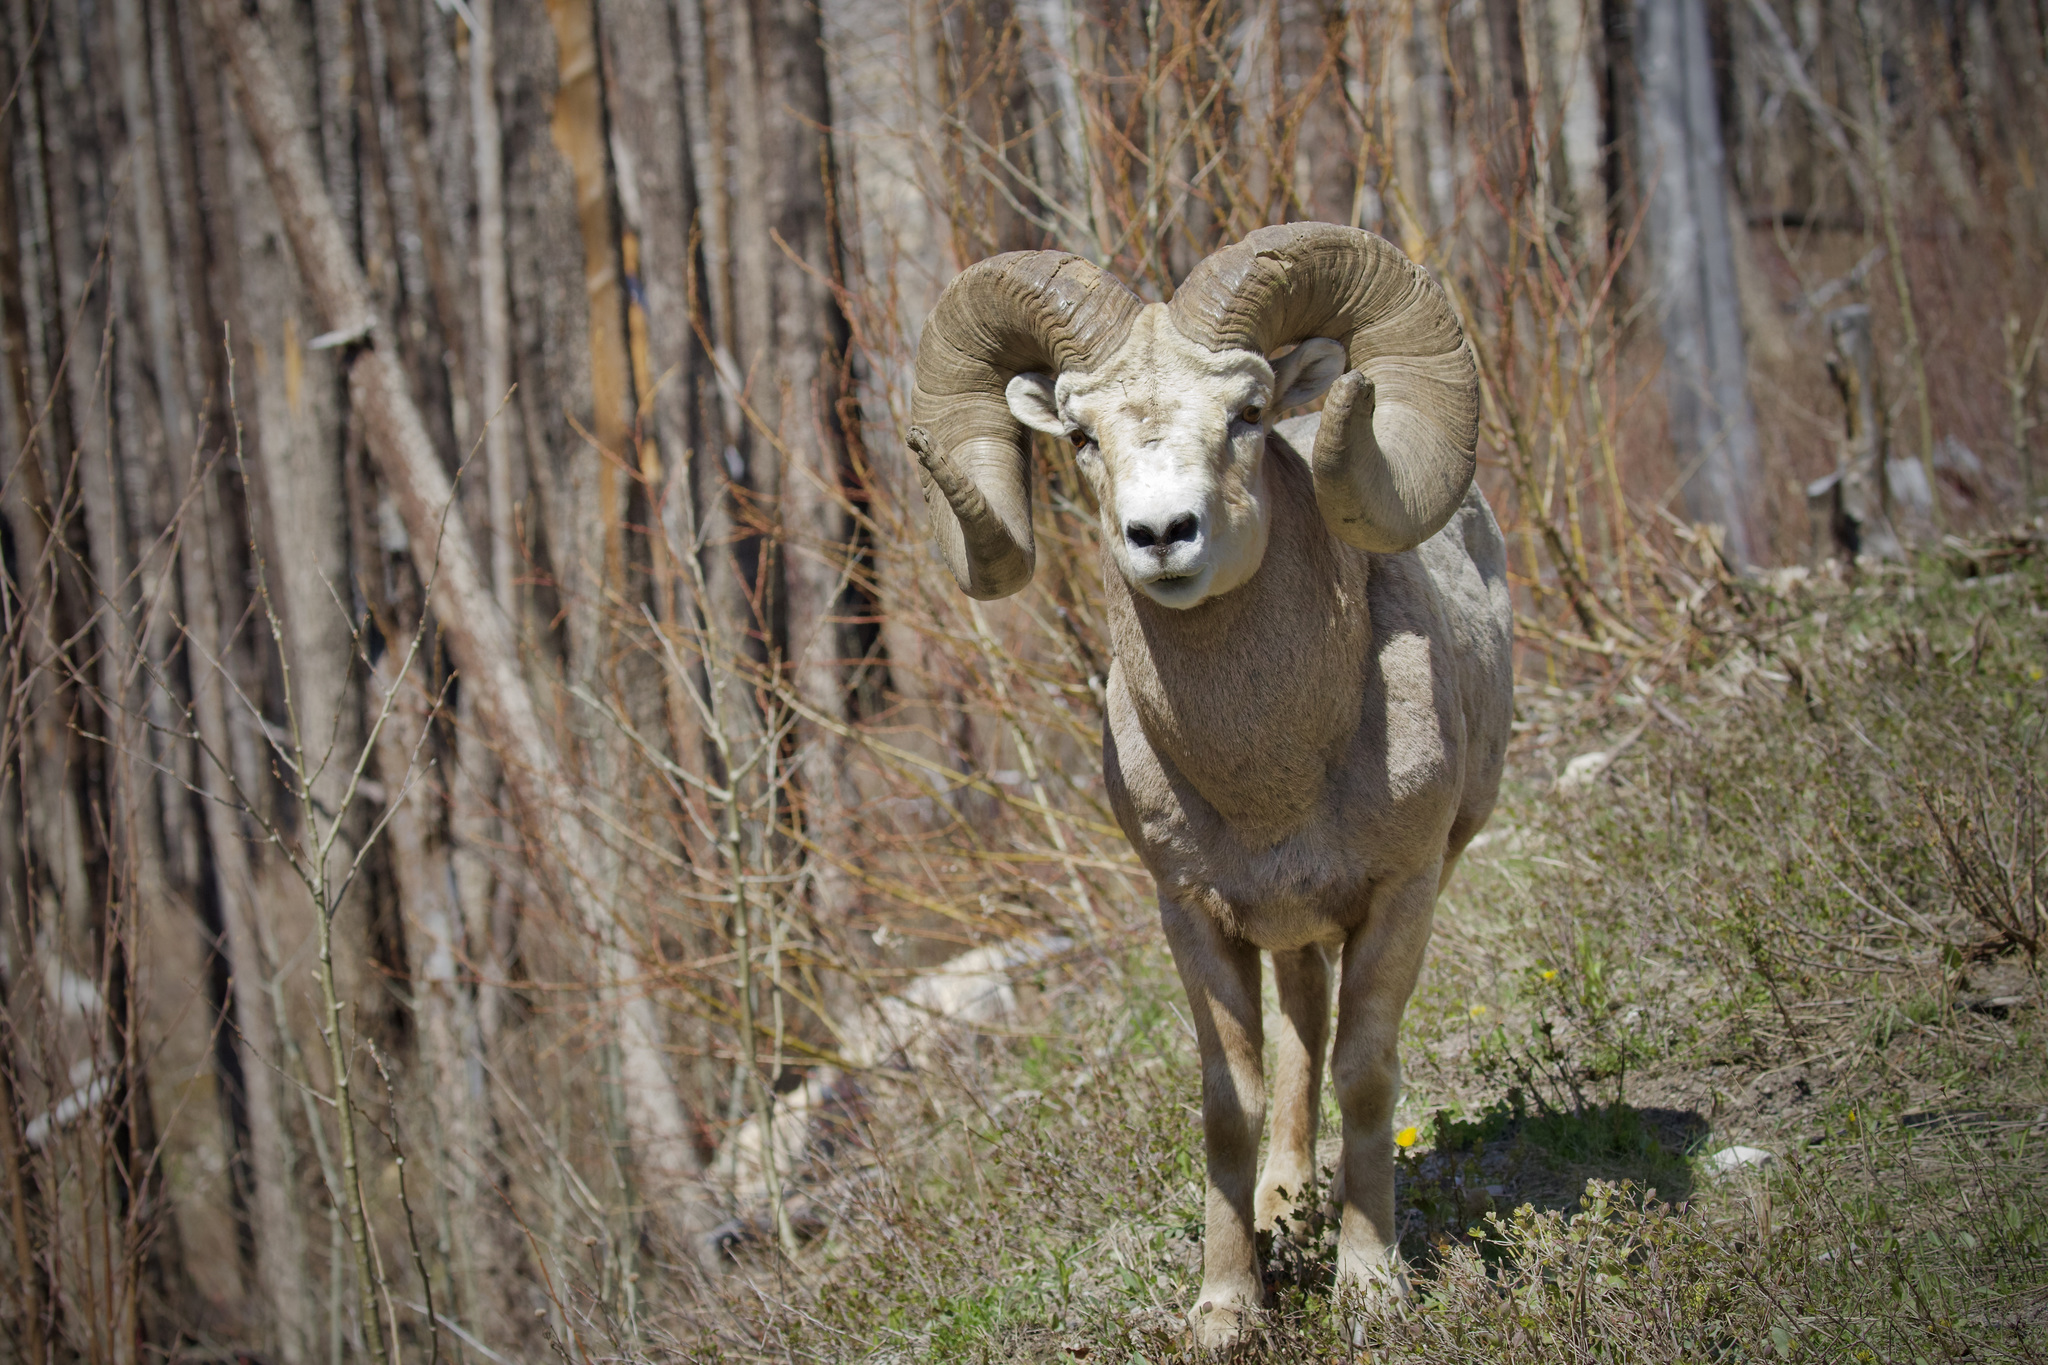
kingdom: Animalia
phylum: Chordata
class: Mammalia
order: Artiodactyla
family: Bovidae
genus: Ovis
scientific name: Ovis canadensis
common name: Bighorn sheep
